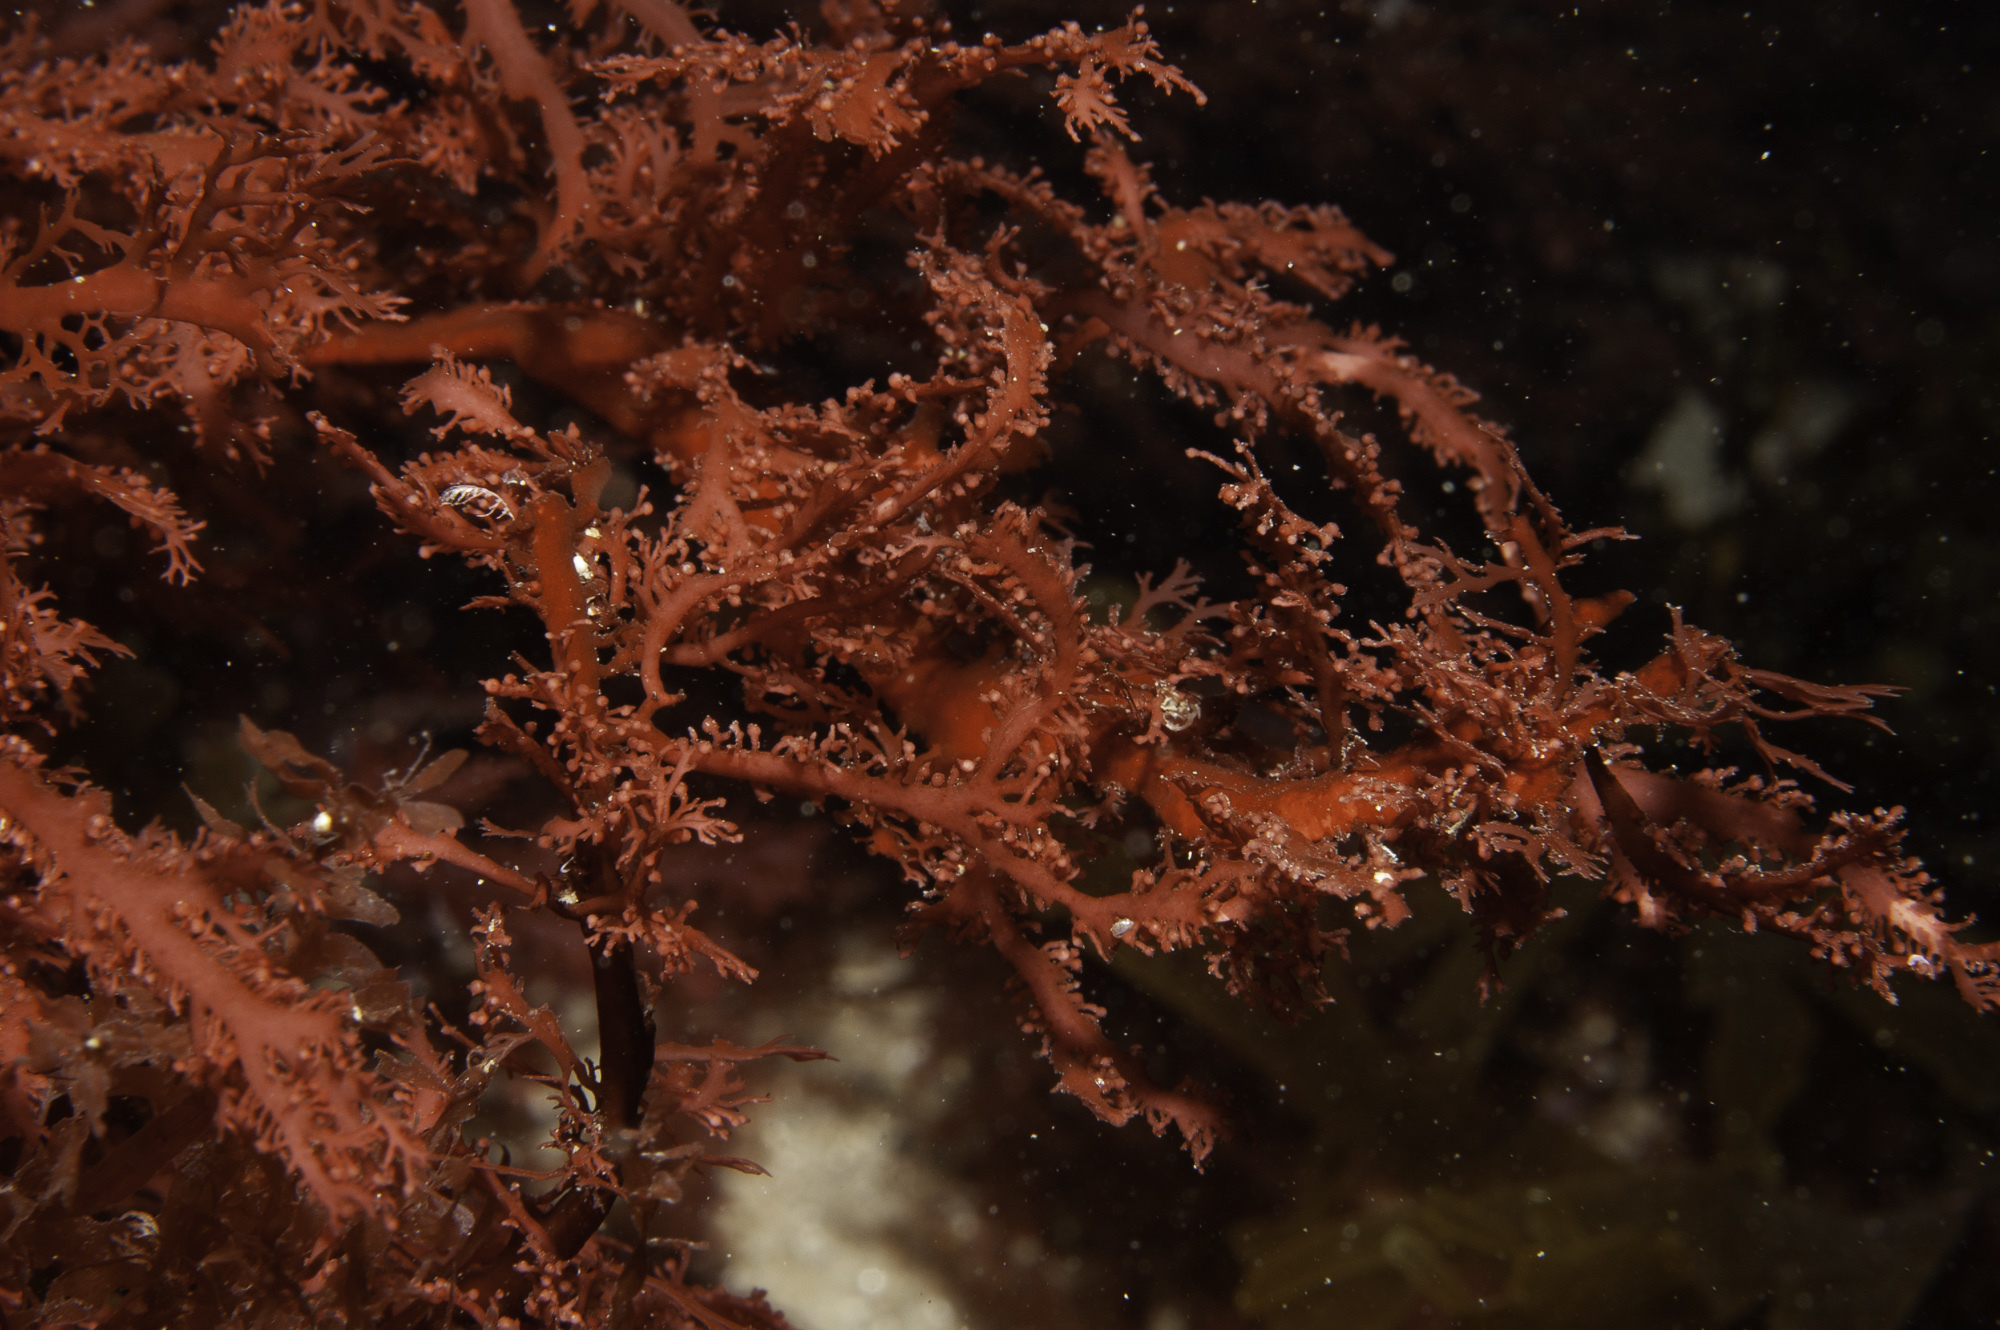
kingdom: Plantae
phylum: Rhodophyta
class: Florideophyceae
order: Gigartinales
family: Sphaerococcaceae
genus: Sphaerococcus
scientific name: Sphaerococcus coronopifolius
